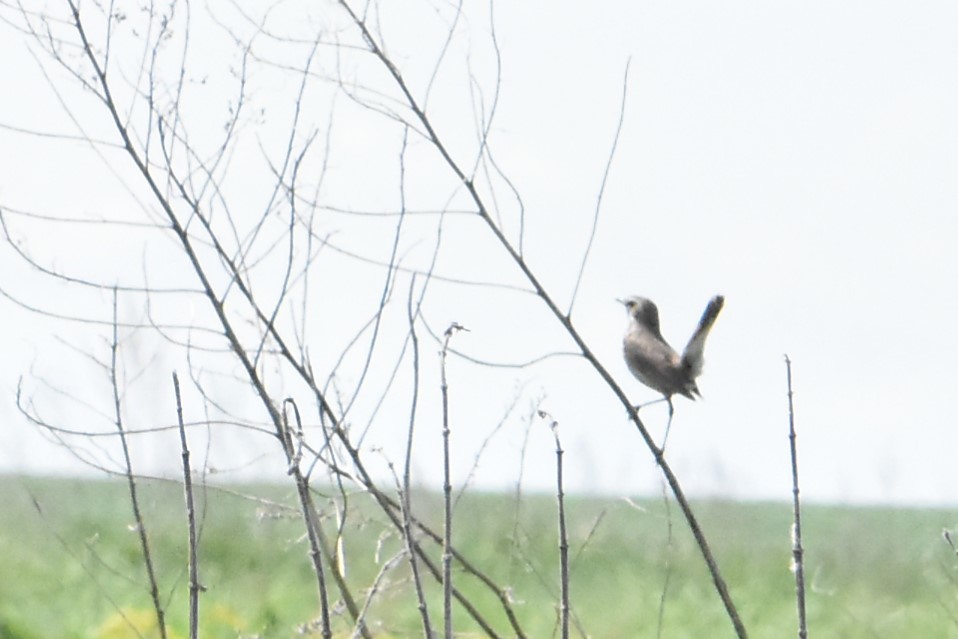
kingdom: Animalia
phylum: Chordata
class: Aves
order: Passeriformes
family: Muscicapidae
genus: Luscinia
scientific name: Luscinia svecica
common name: Bluethroat
